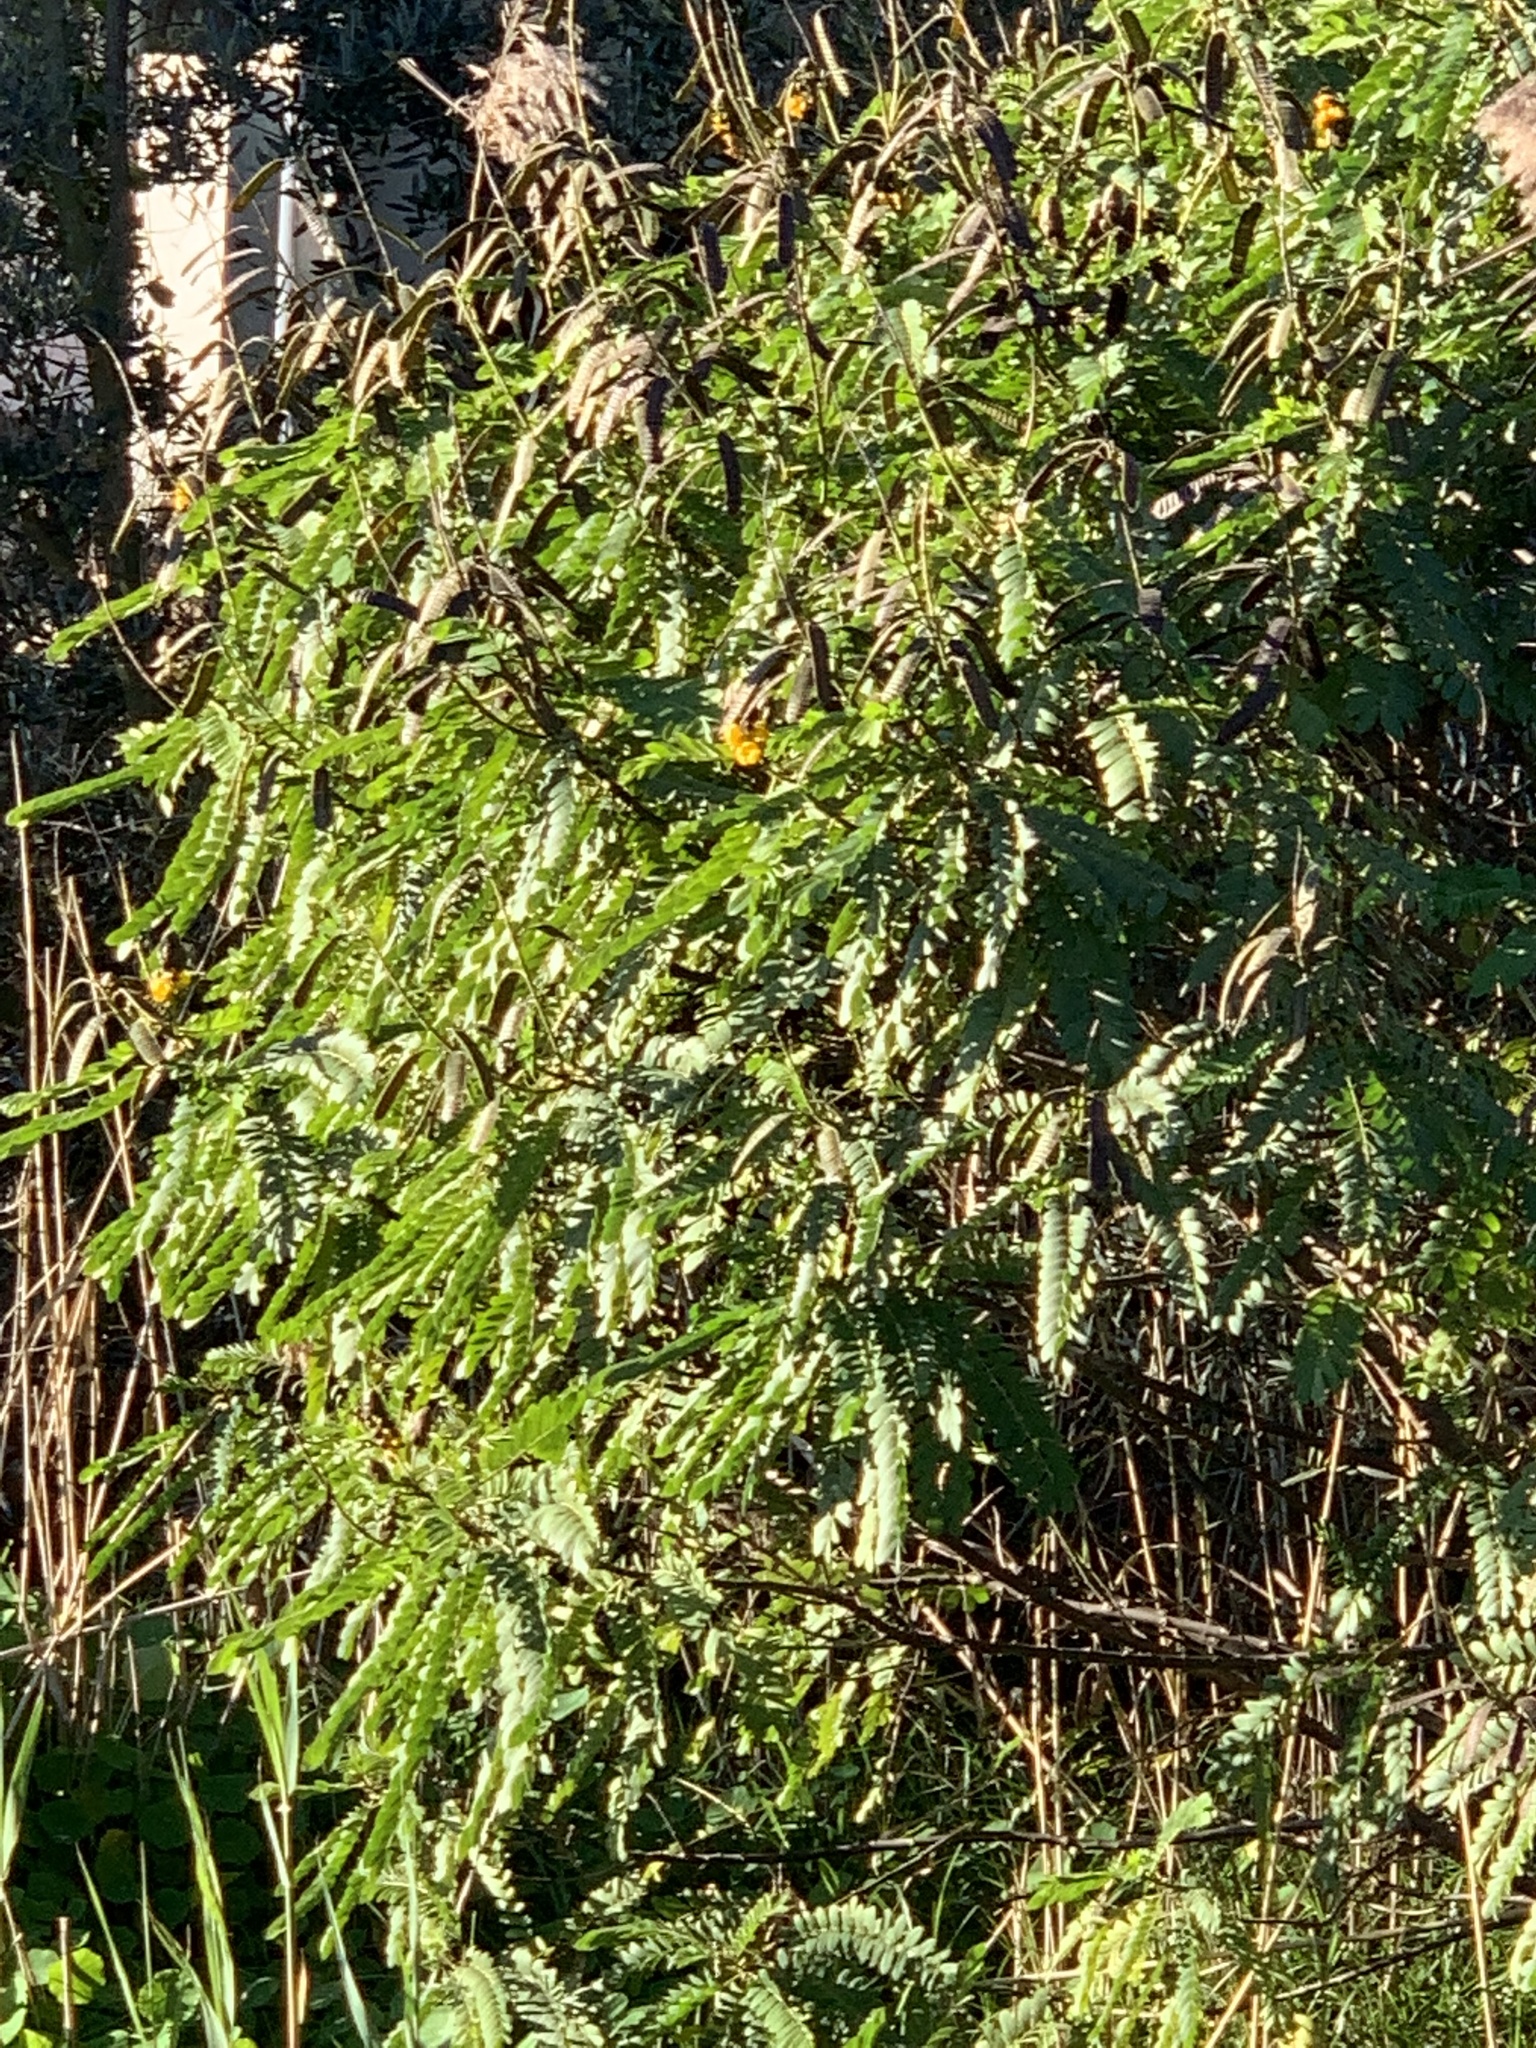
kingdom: Plantae
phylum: Tracheophyta
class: Magnoliopsida
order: Fabales
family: Fabaceae
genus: Senna
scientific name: Senna didymobotrya
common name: African senna
